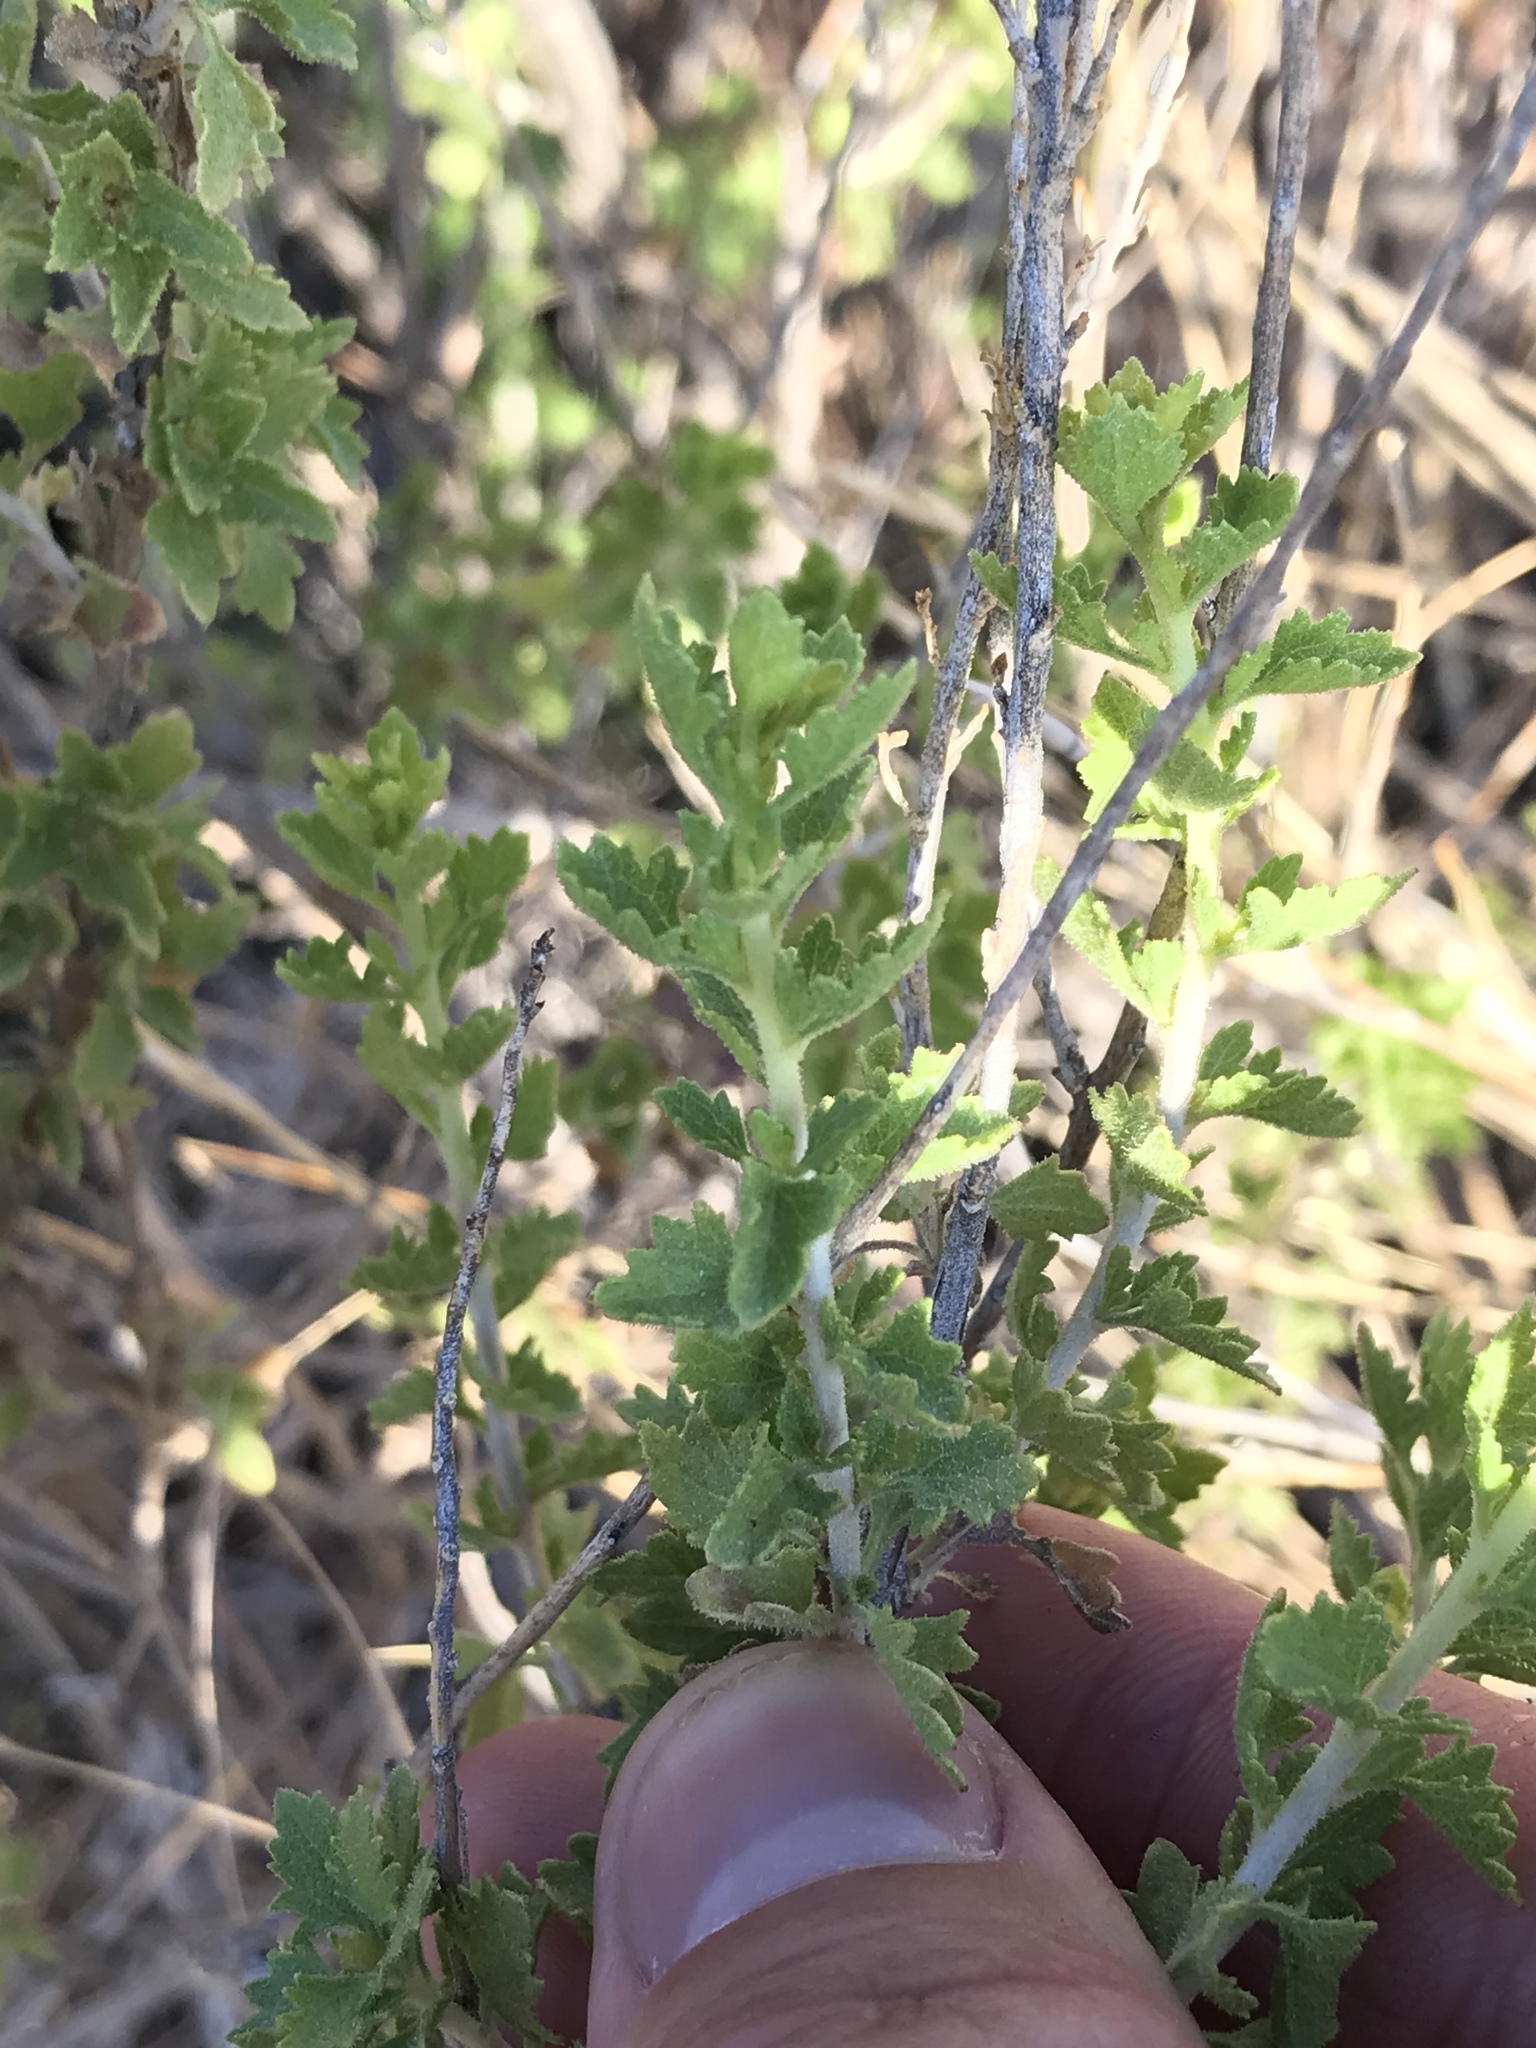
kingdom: Plantae
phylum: Tracheophyta
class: Magnoliopsida
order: Asterales
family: Asteraceae
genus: Brickellia
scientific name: Brickellia laciniata
